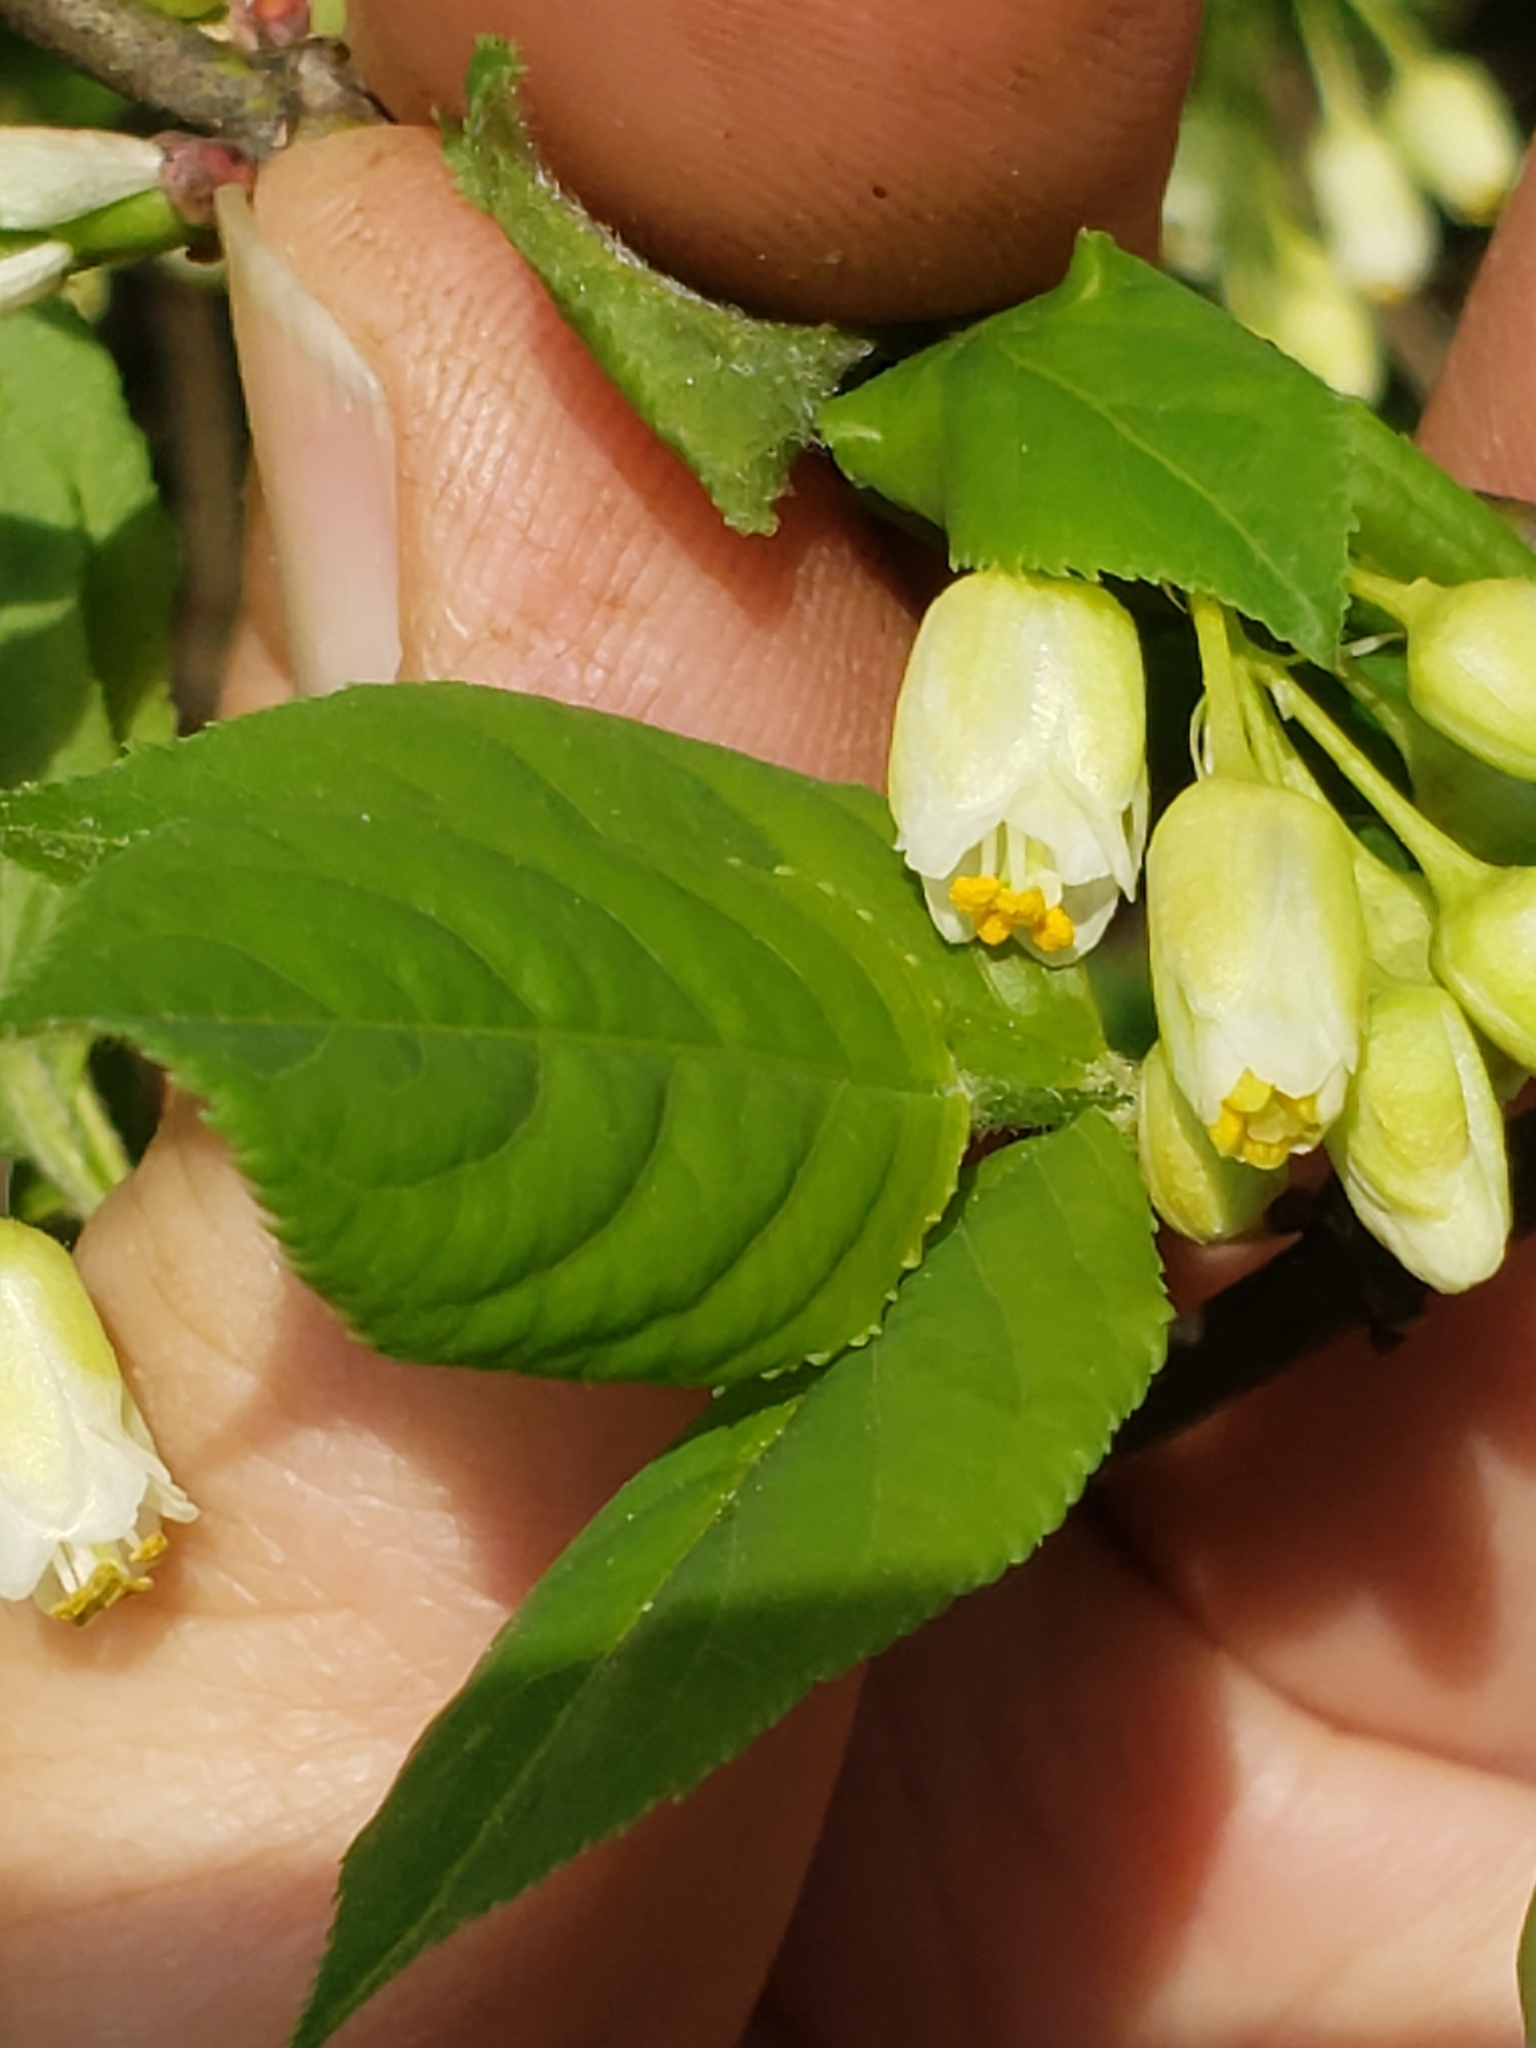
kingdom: Plantae
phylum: Tracheophyta
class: Magnoliopsida
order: Crossosomatales
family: Staphyleaceae
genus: Staphylea
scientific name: Staphylea trifolia
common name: American bladdernut
